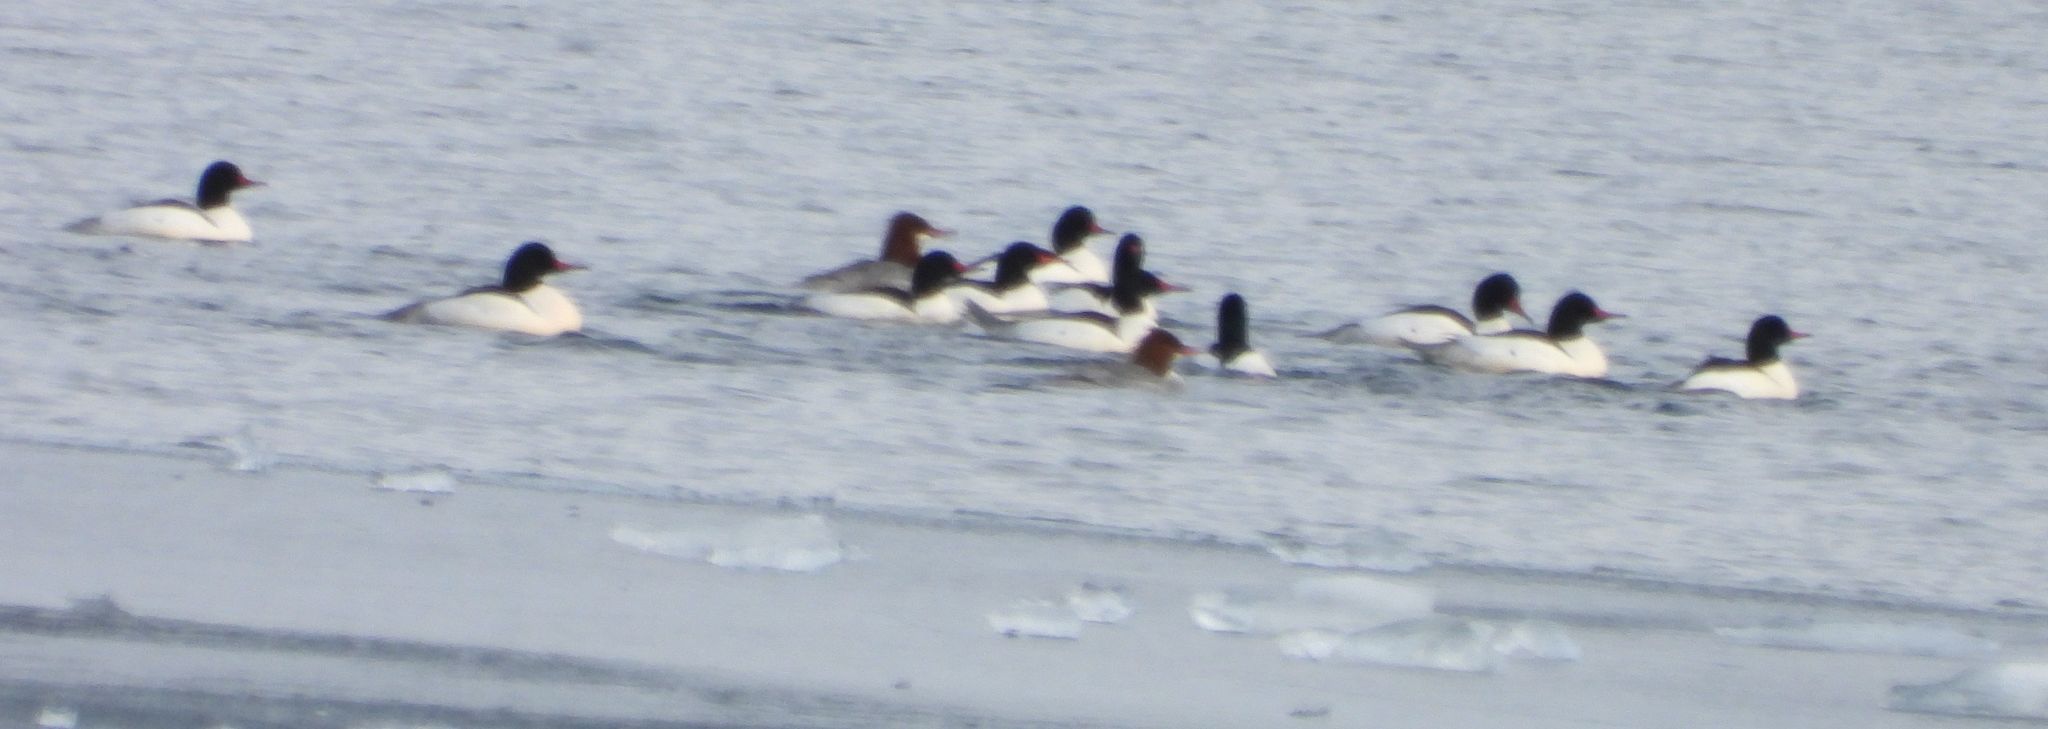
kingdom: Animalia
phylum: Chordata
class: Aves
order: Anseriformes
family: Anatidae
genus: Mergus
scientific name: Mergus merganser
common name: Common merganser
